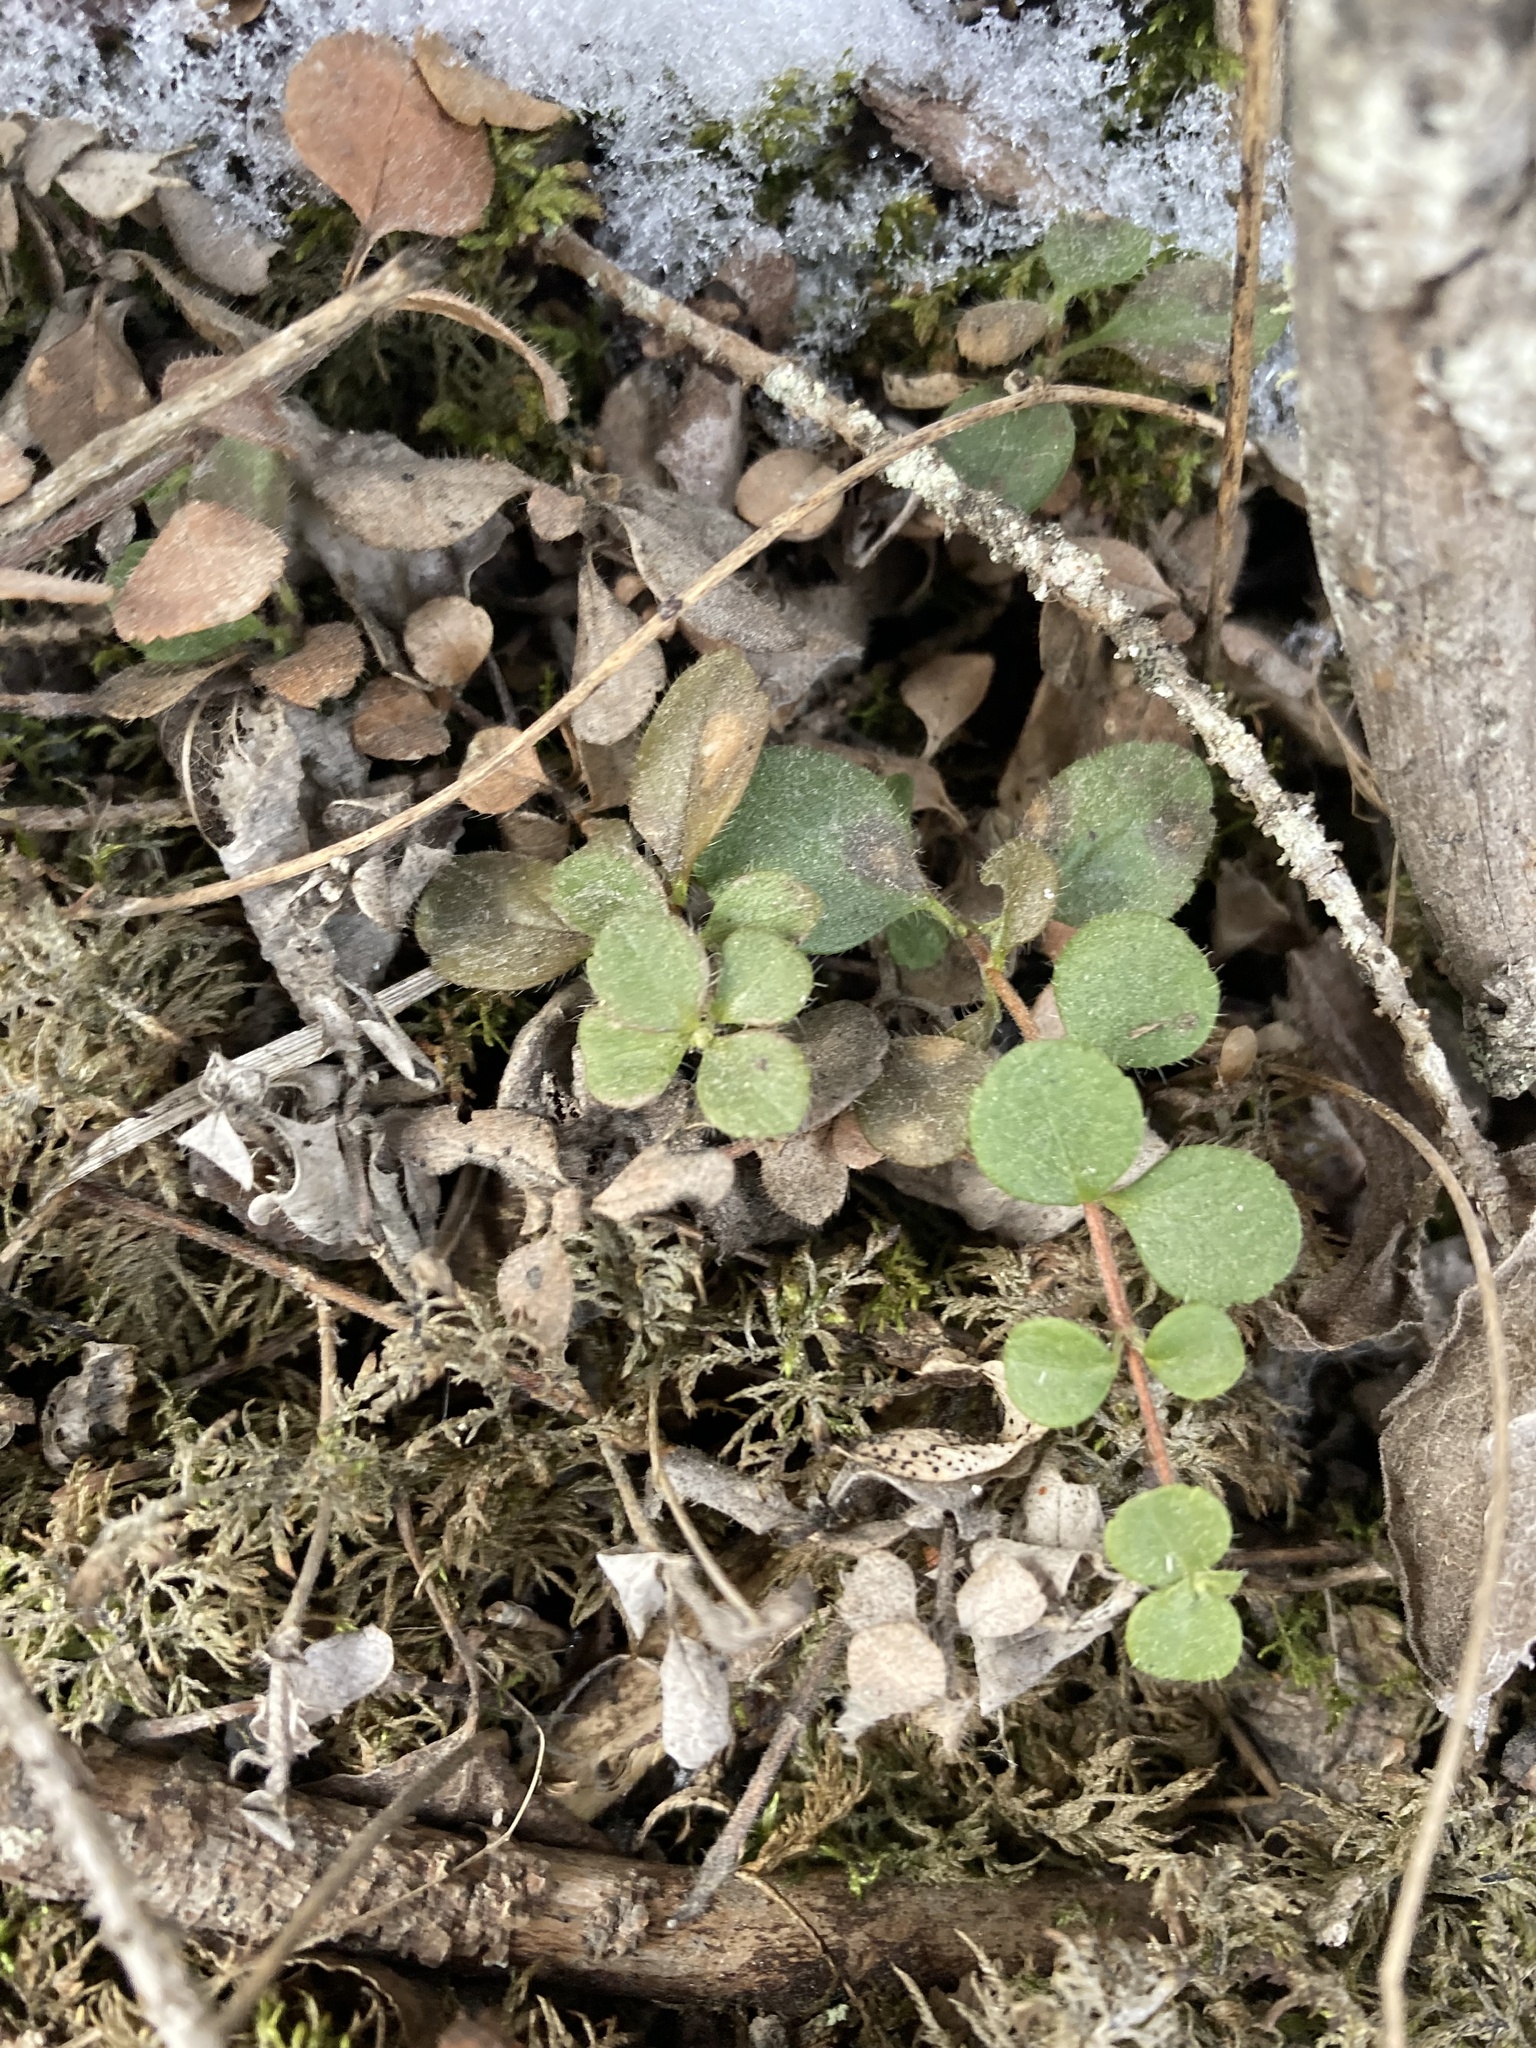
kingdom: Plantae
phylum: Tracheophyta
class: Magnoliopsida
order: Dipsacales
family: Caprifoliaceae
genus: Linnaea
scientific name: Linnaea borealis
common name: Twinflower
